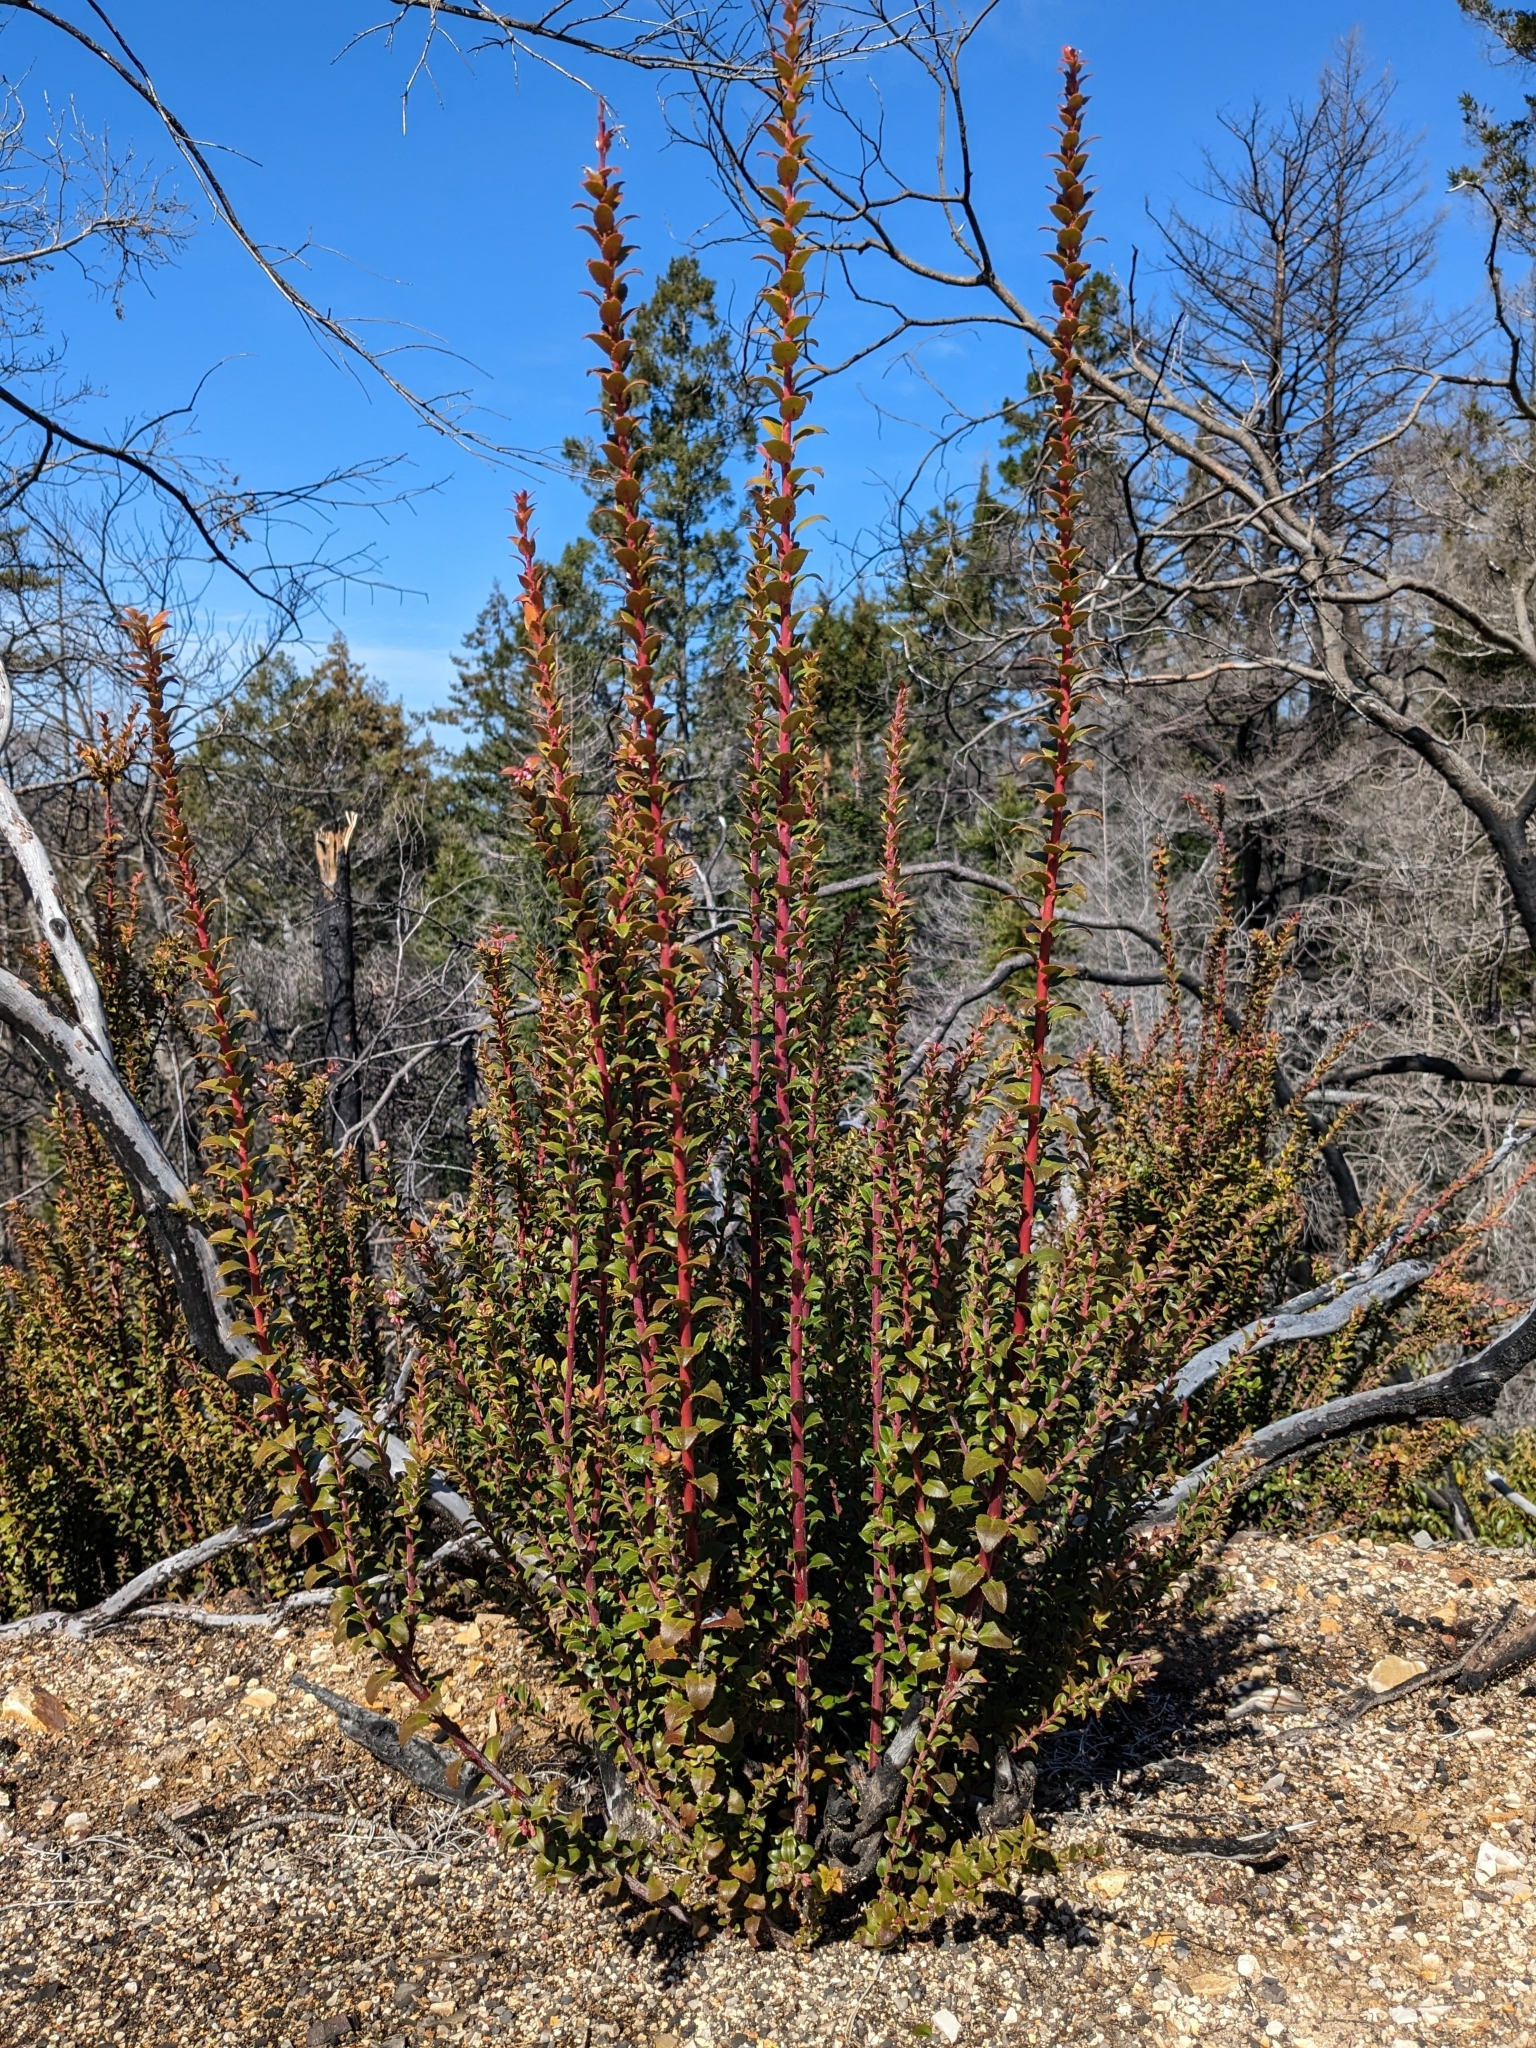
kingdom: Plantae
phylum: Tracheophyta
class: Magnoliopsida
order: Ericales
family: Ericaceae
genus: Vaccinium
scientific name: Vaccinium ovatum
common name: California-huckleberry
